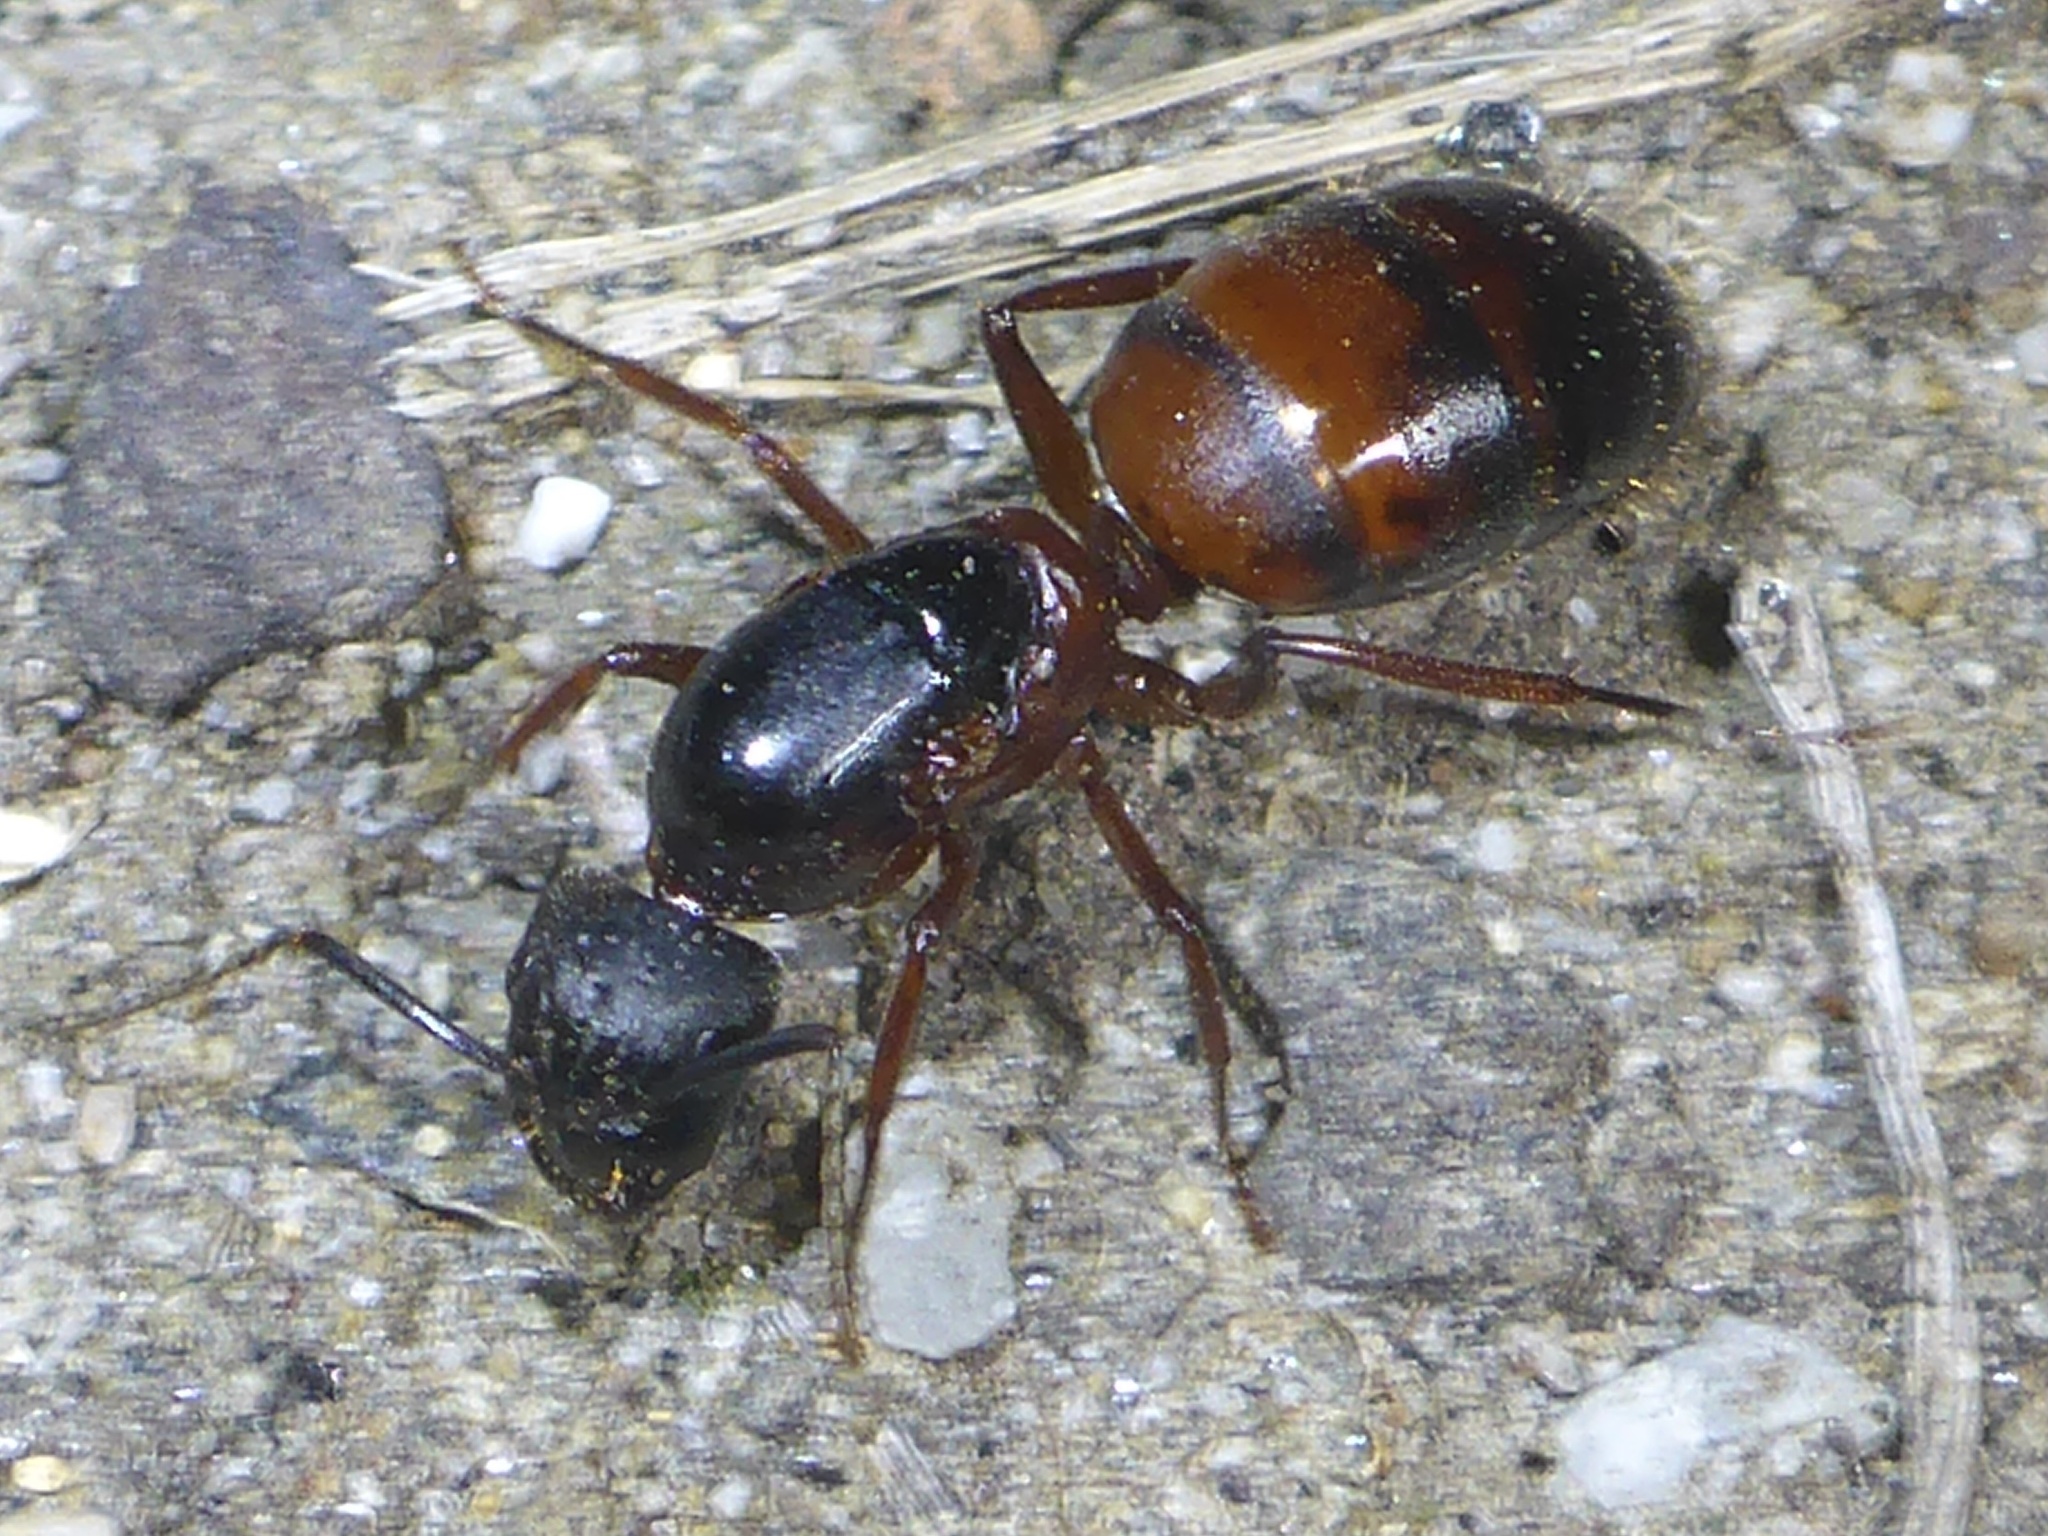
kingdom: Animalia
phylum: Arthropoda
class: Insecta
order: Hymenoptera
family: Formicidae
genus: Camponotus
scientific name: Camponotus vicinus
